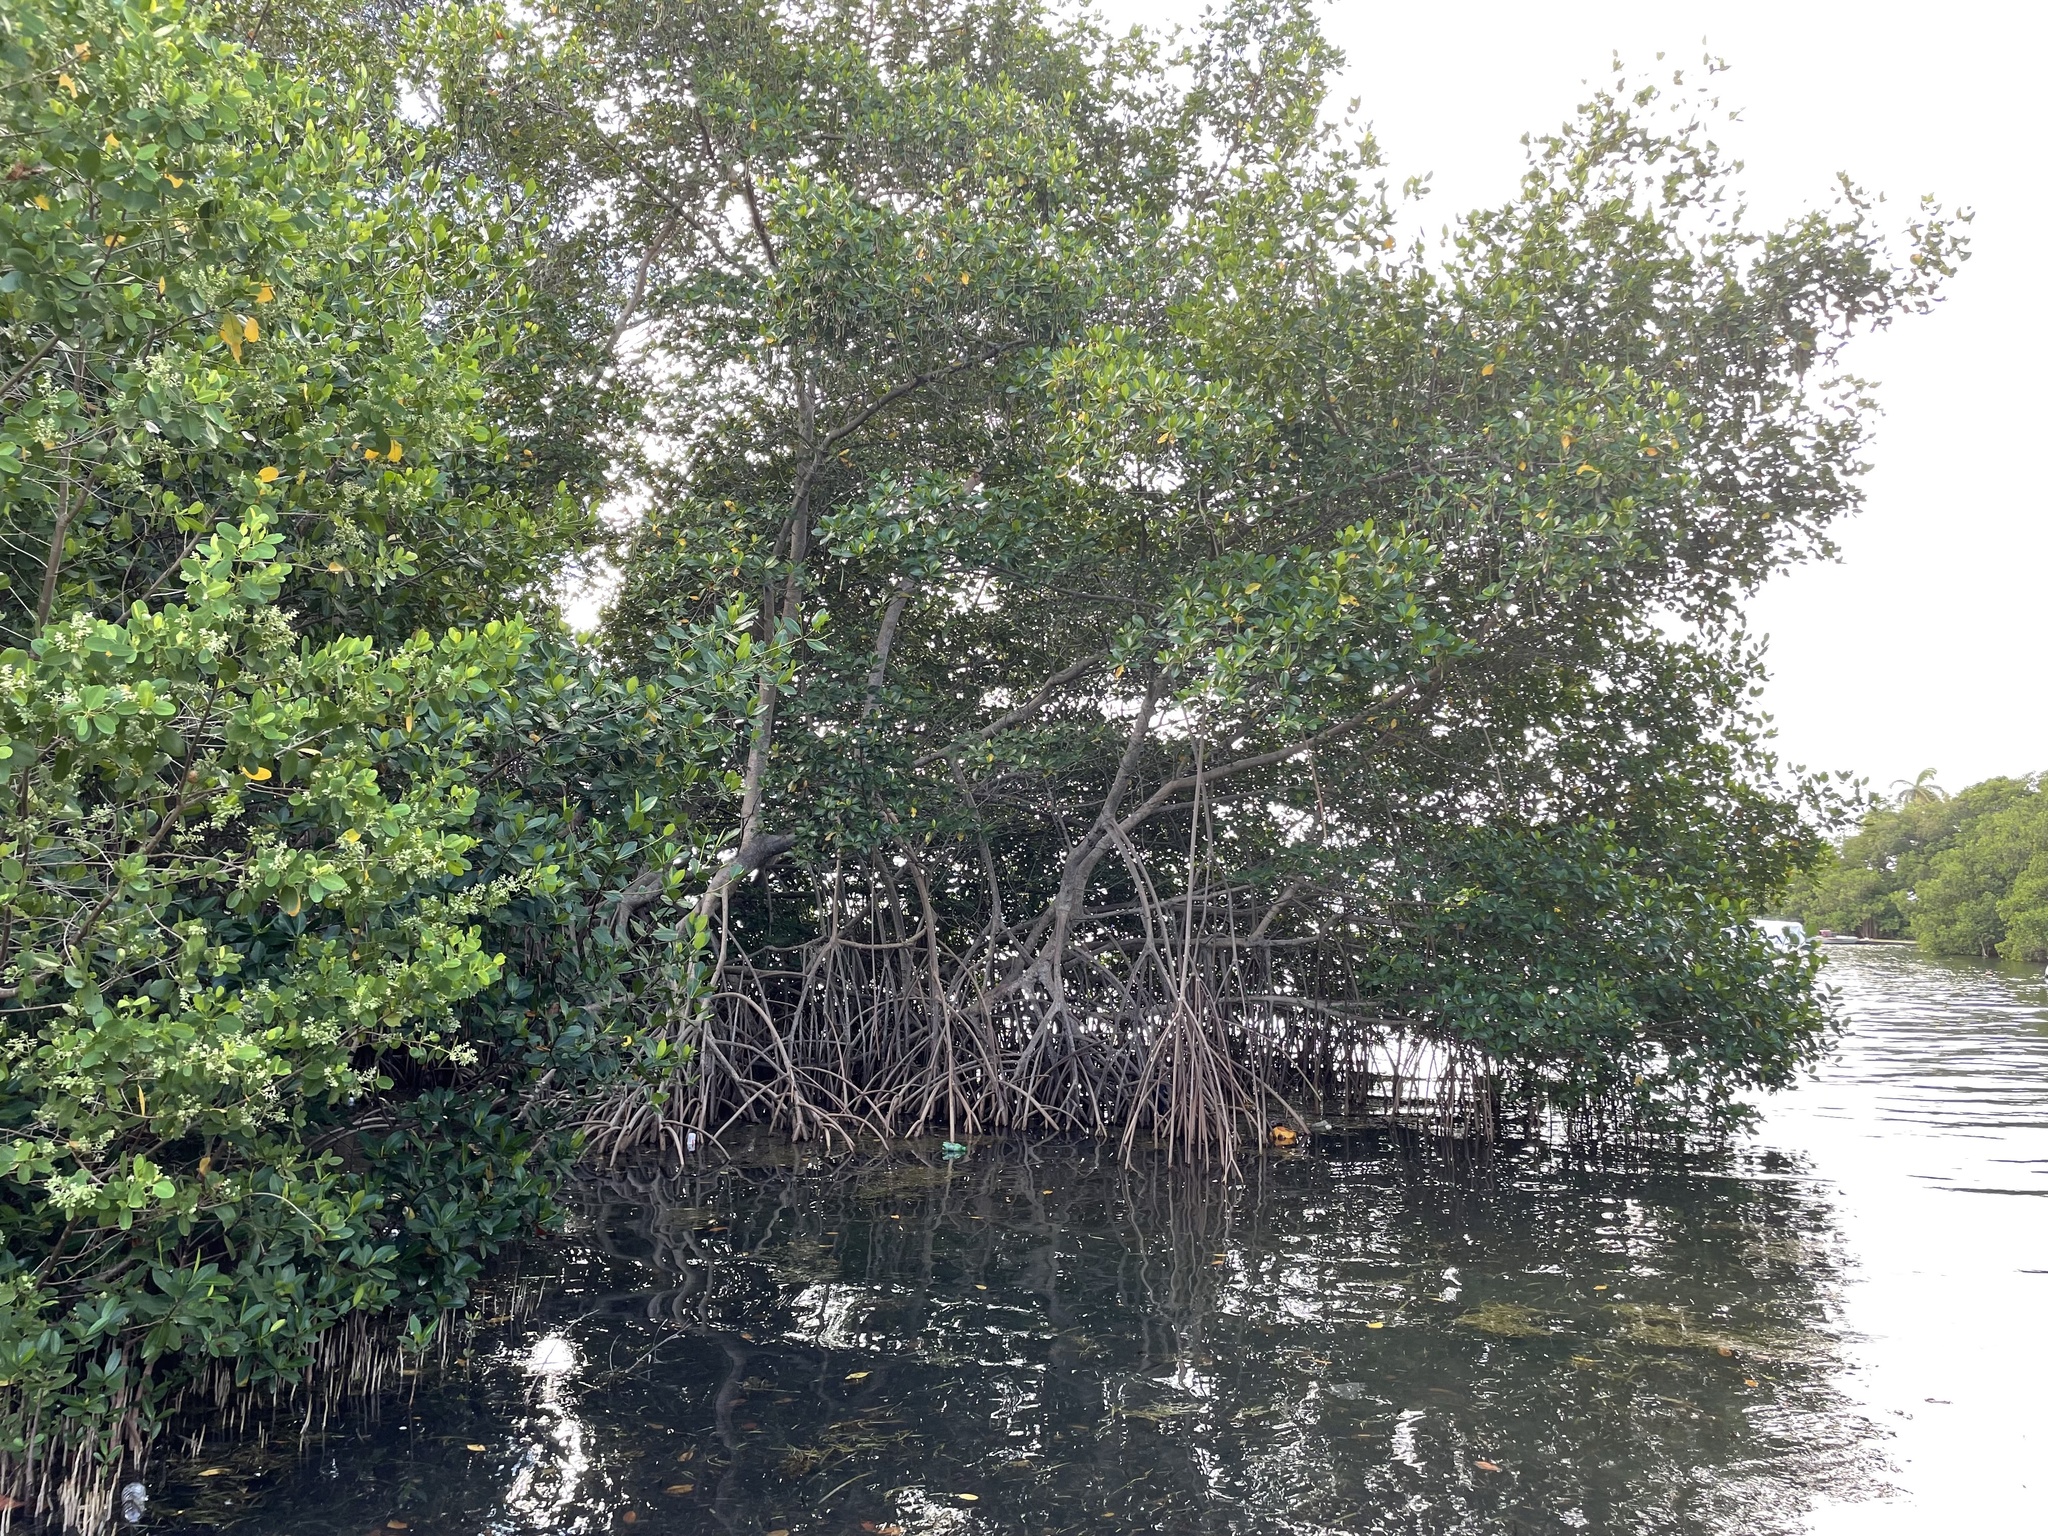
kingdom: Plantae
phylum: Tracheophyta
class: Magnoliopsida
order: Malpighiales
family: Rhizophoraceae
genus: Rhizophora
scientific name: Rhizophora mangle
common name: Red mangrove
